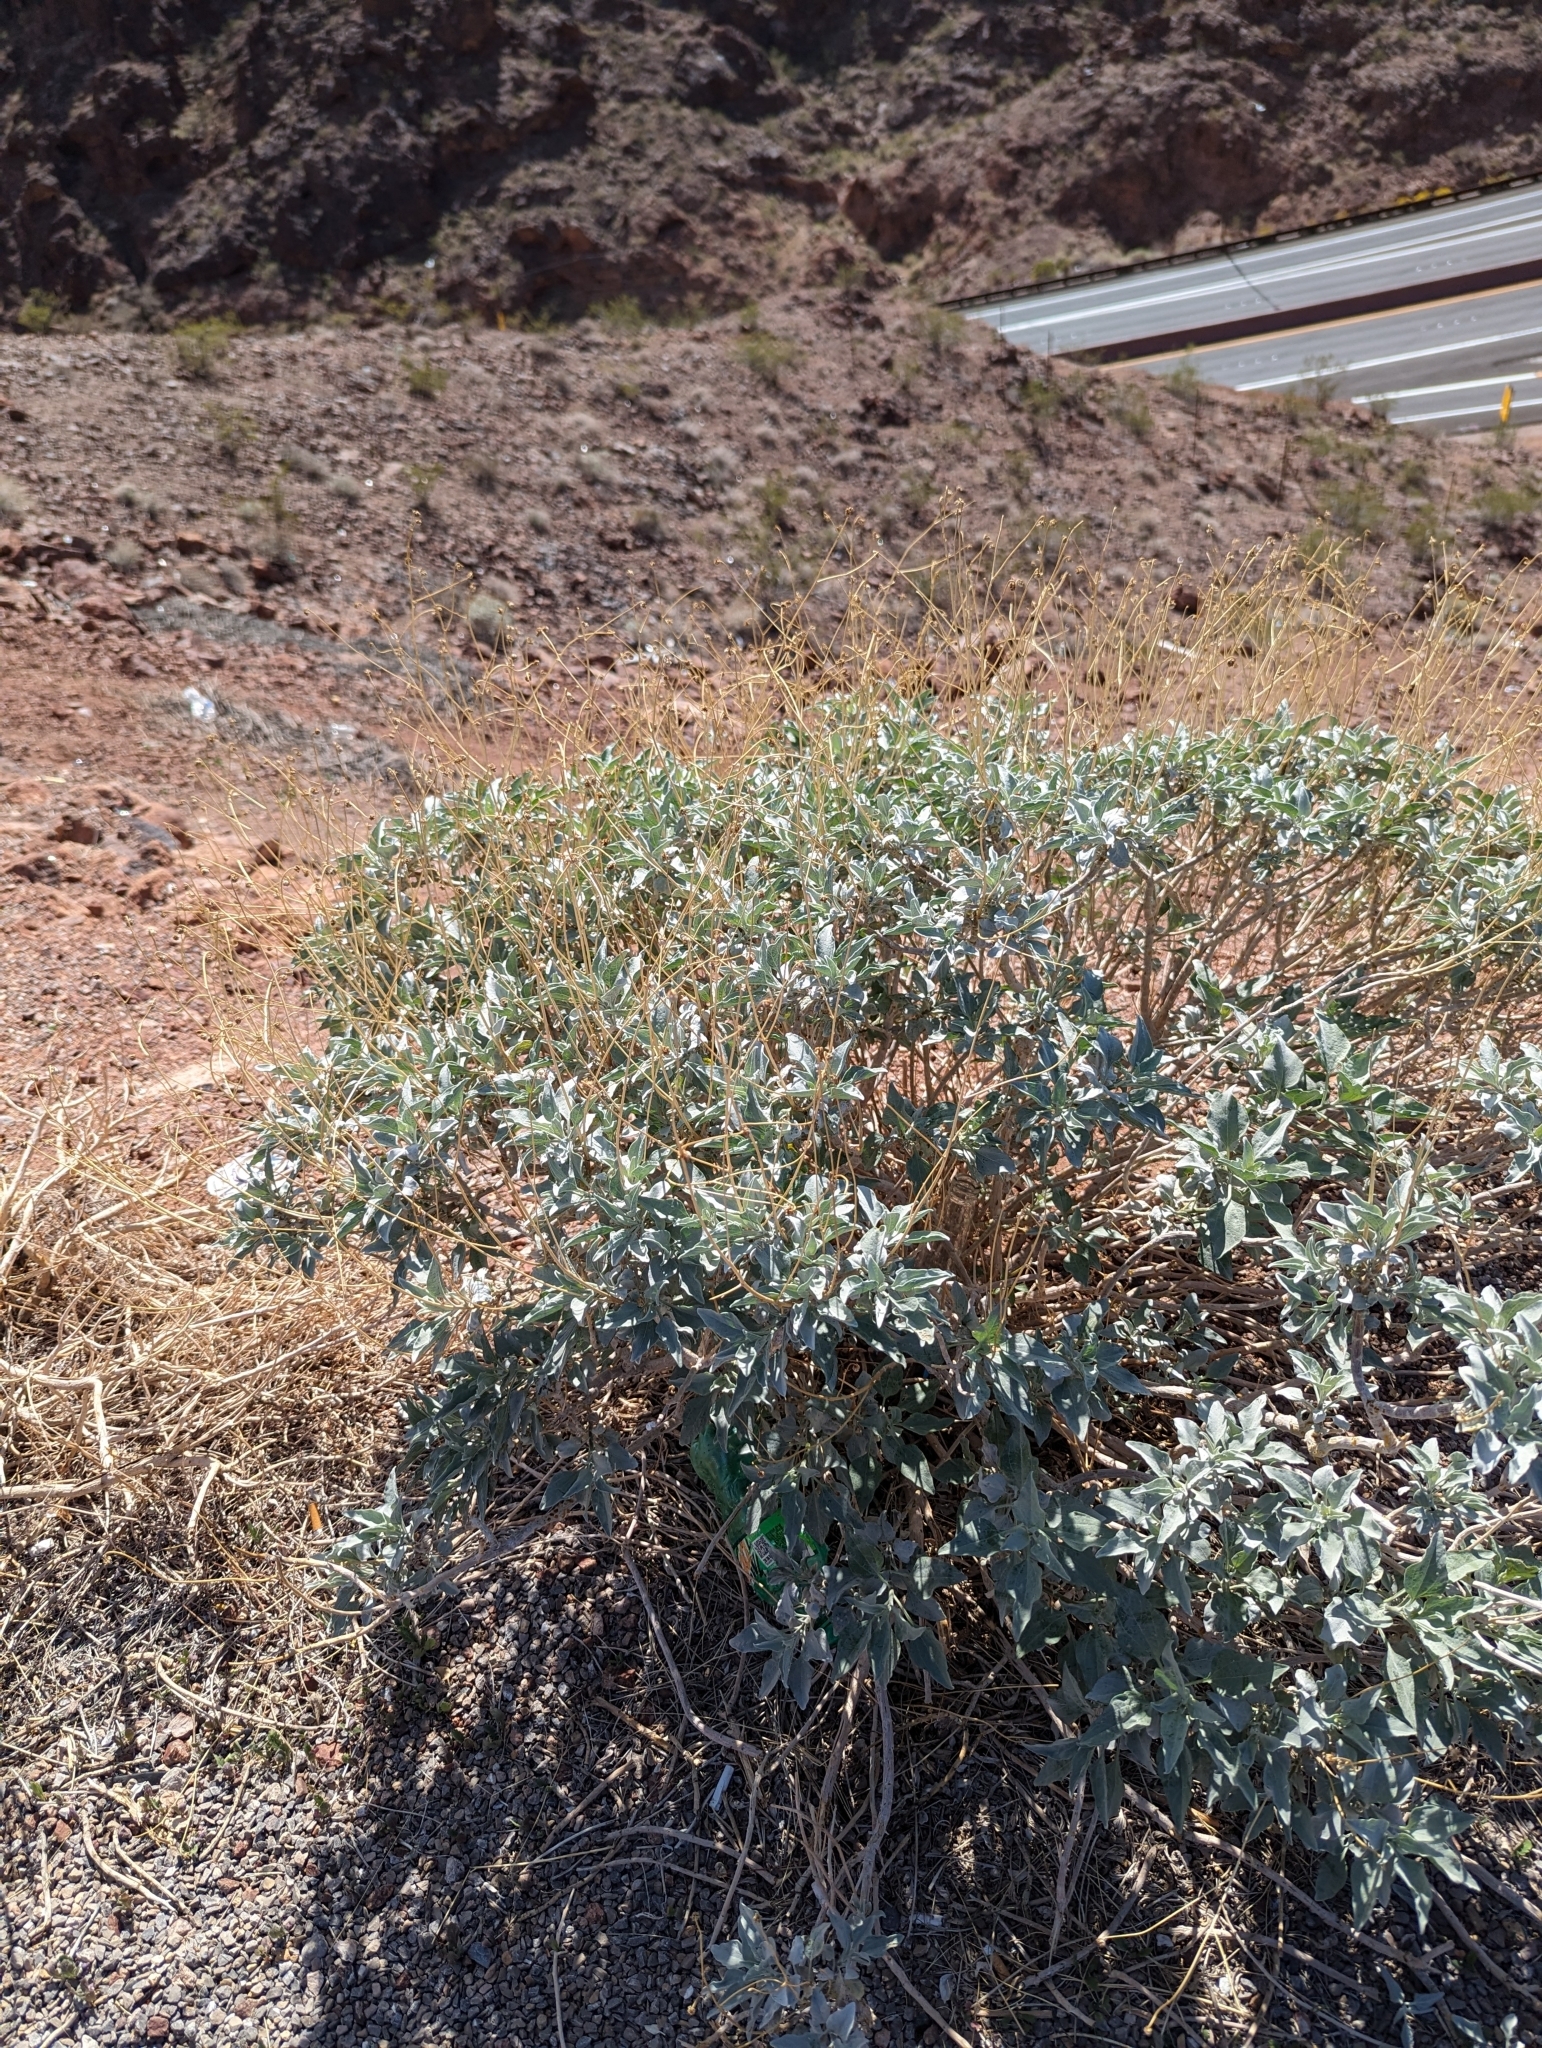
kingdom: Plantae
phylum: Tracheophyta
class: Magnoliopsida
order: Asterales
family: Asteraceae
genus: Encelia
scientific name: Encelia farinosa
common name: Brittlebush
